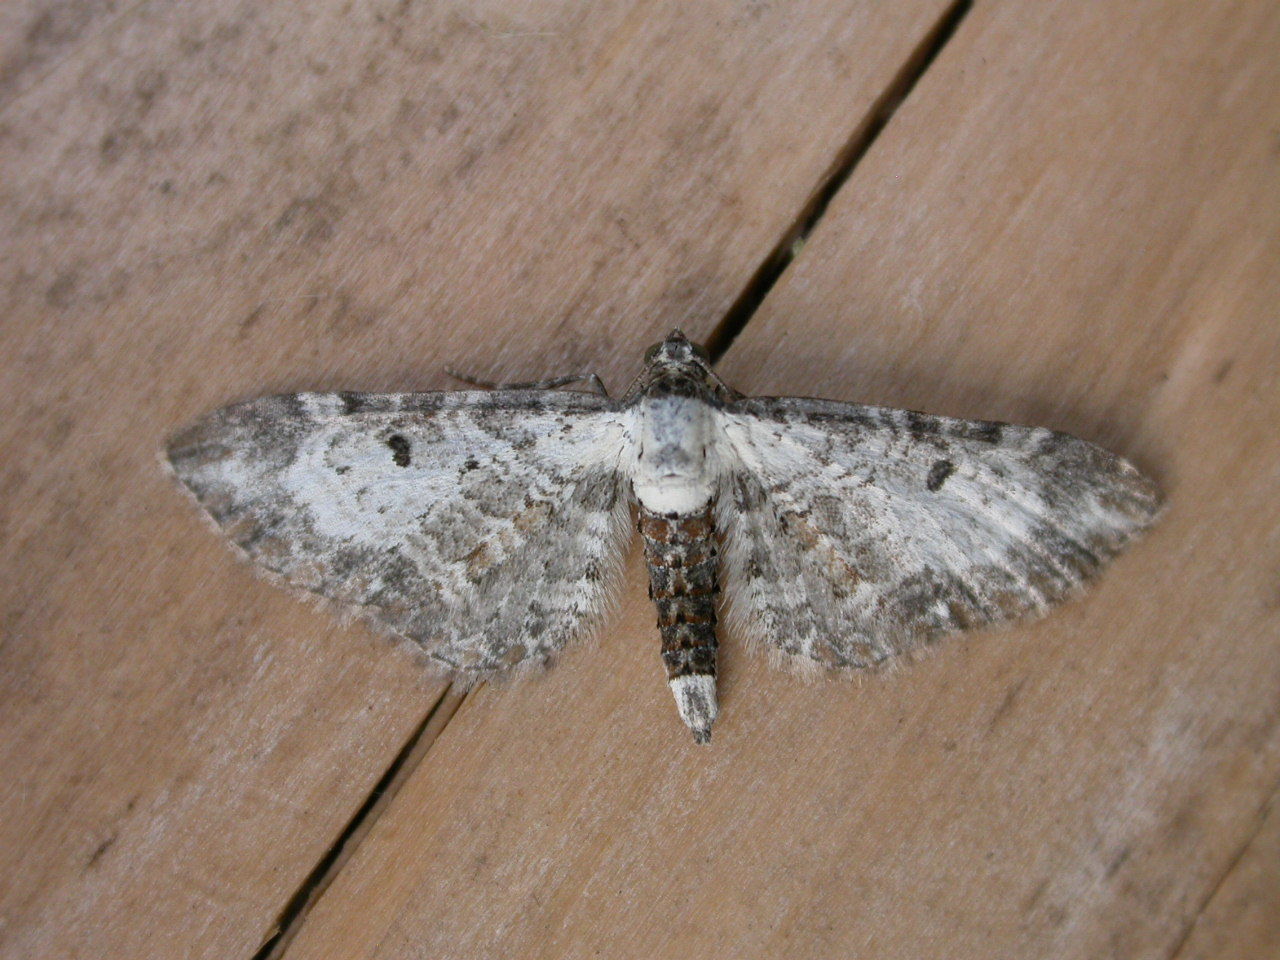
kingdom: Animalia
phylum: Arthropoda
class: Insecta
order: Lepidoptera
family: Geometridae
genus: Eupithecia
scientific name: Eupithecia succenturiata
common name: Bordered pug
